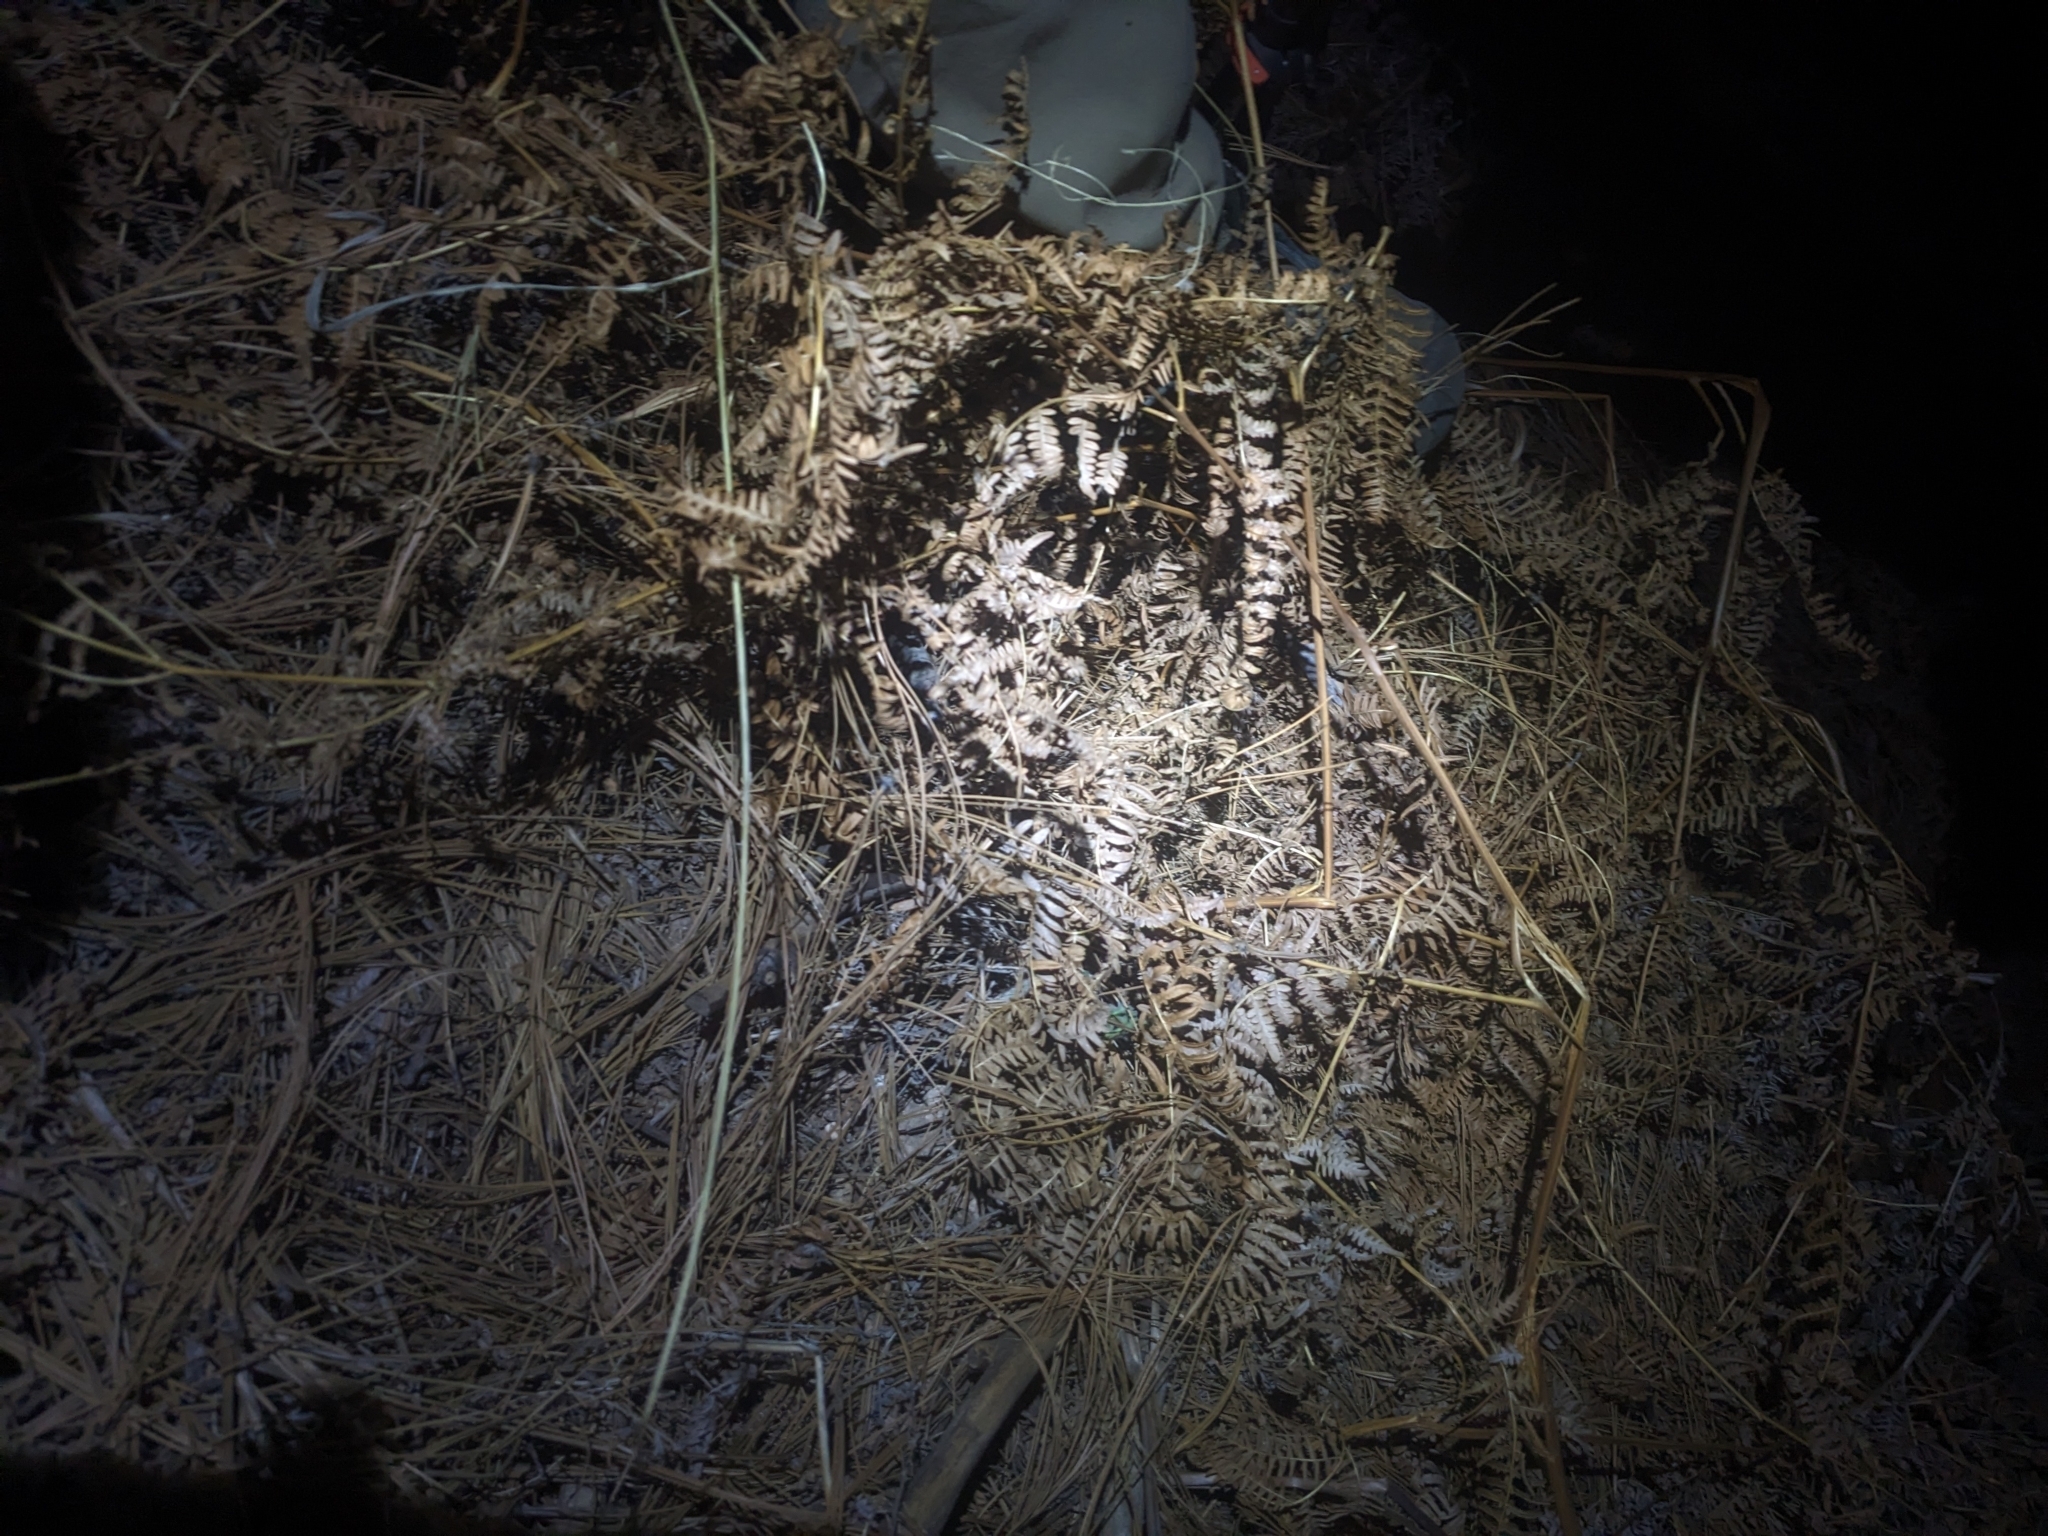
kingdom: Plantae
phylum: Tracheophyta
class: Polypodiopsida
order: Polypodiales
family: Dennstaedtiaceae
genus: Pteridium
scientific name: Pteridium aquilinum
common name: Bracken
